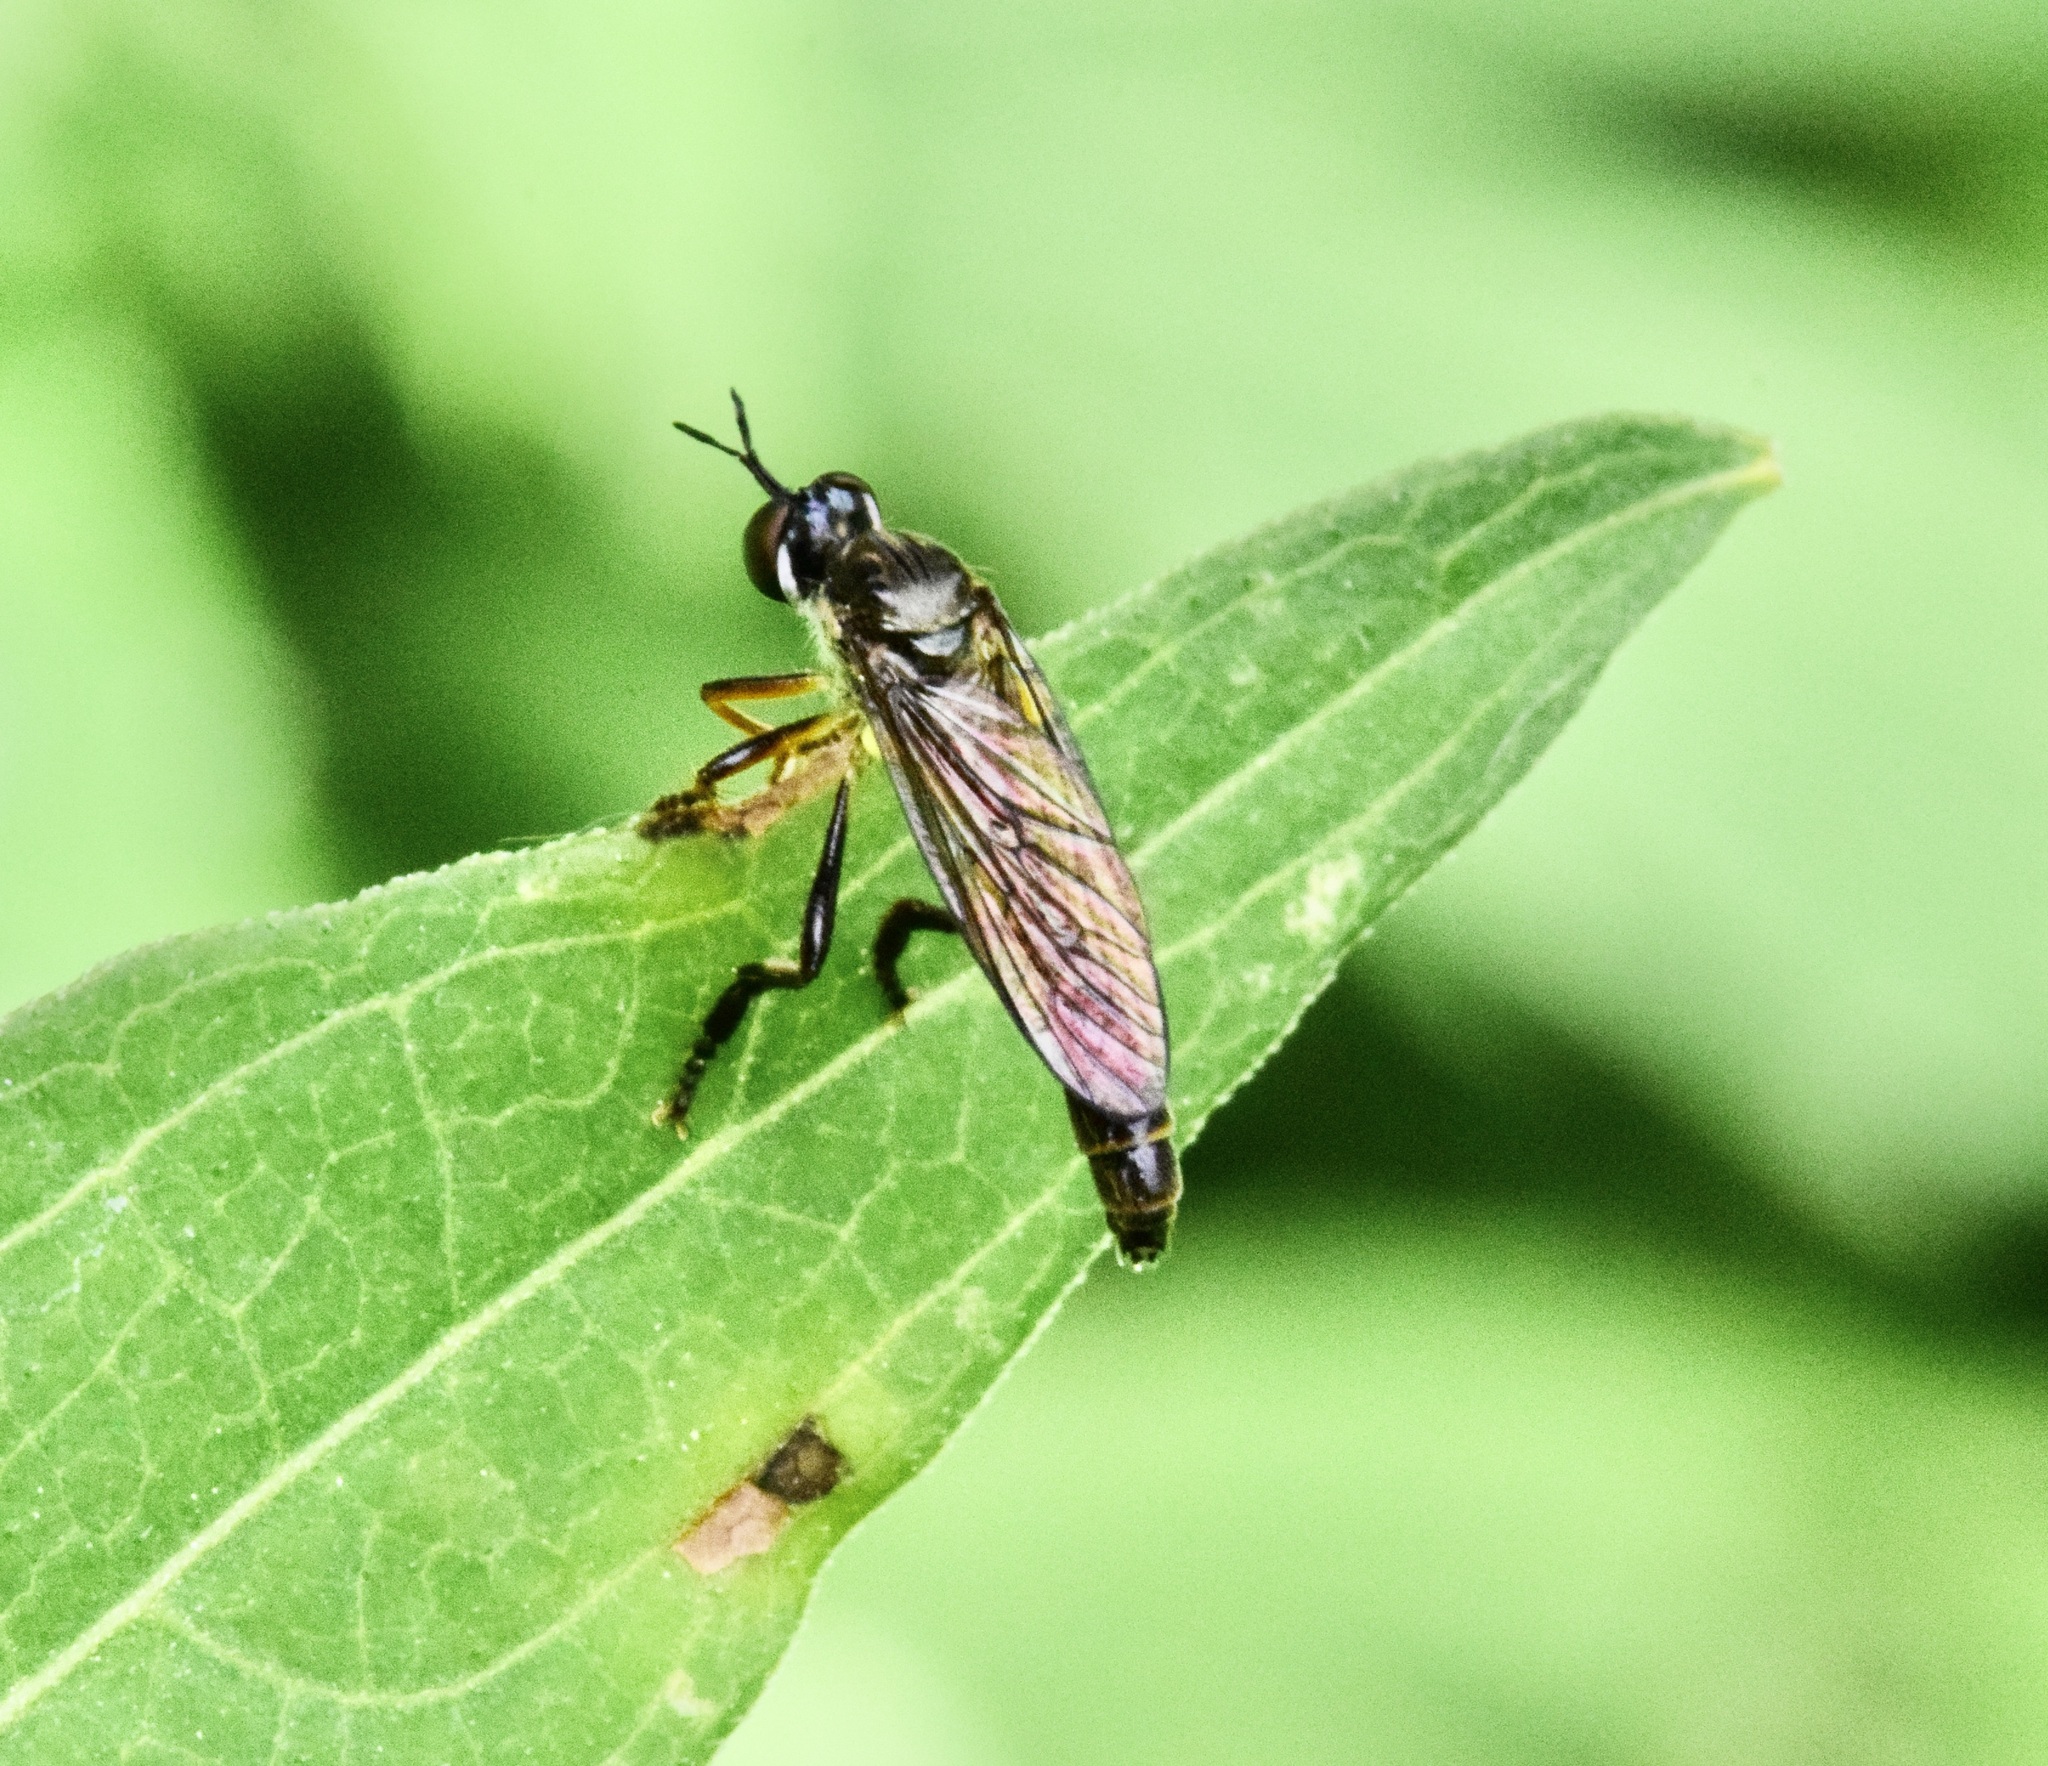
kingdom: Animalia
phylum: Arthropoda
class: Insecta
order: Diptera
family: Asilidae
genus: Dioctria
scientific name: Dioctria hyalipennis
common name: Stripe-legged robberfly
